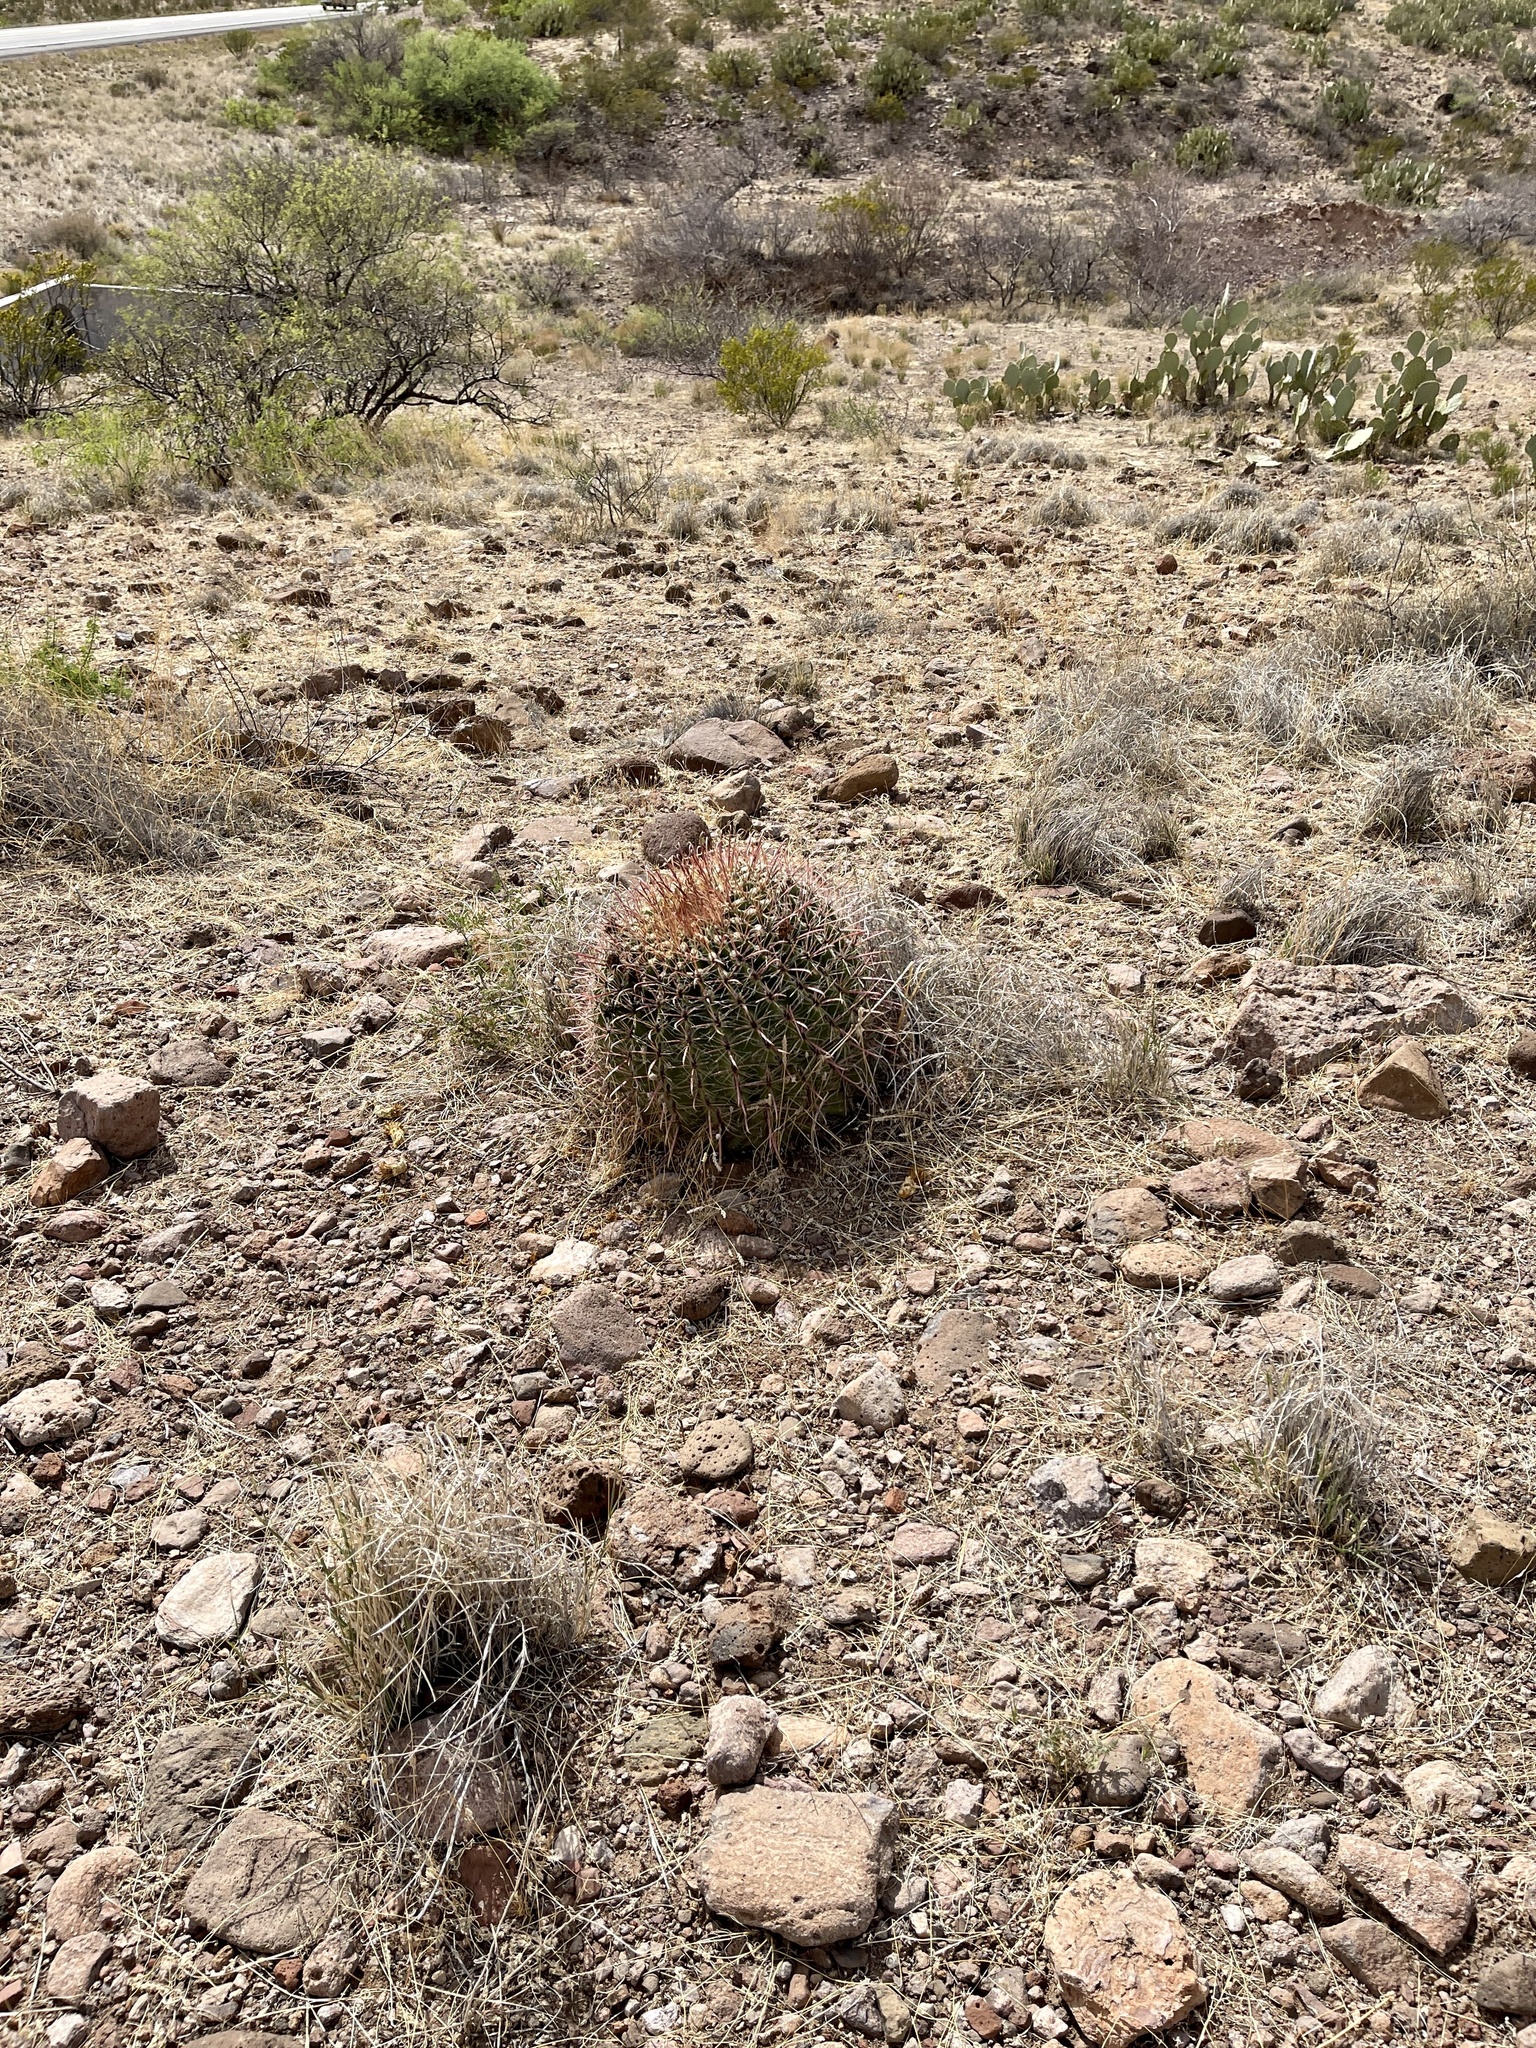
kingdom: Plantae
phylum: Tracheophyta
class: Magnoliopsida
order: Caryophyllales
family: Cactaceae
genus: Ferocactus
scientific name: Ferocactus wislizeni
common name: Candy barrel cactus
